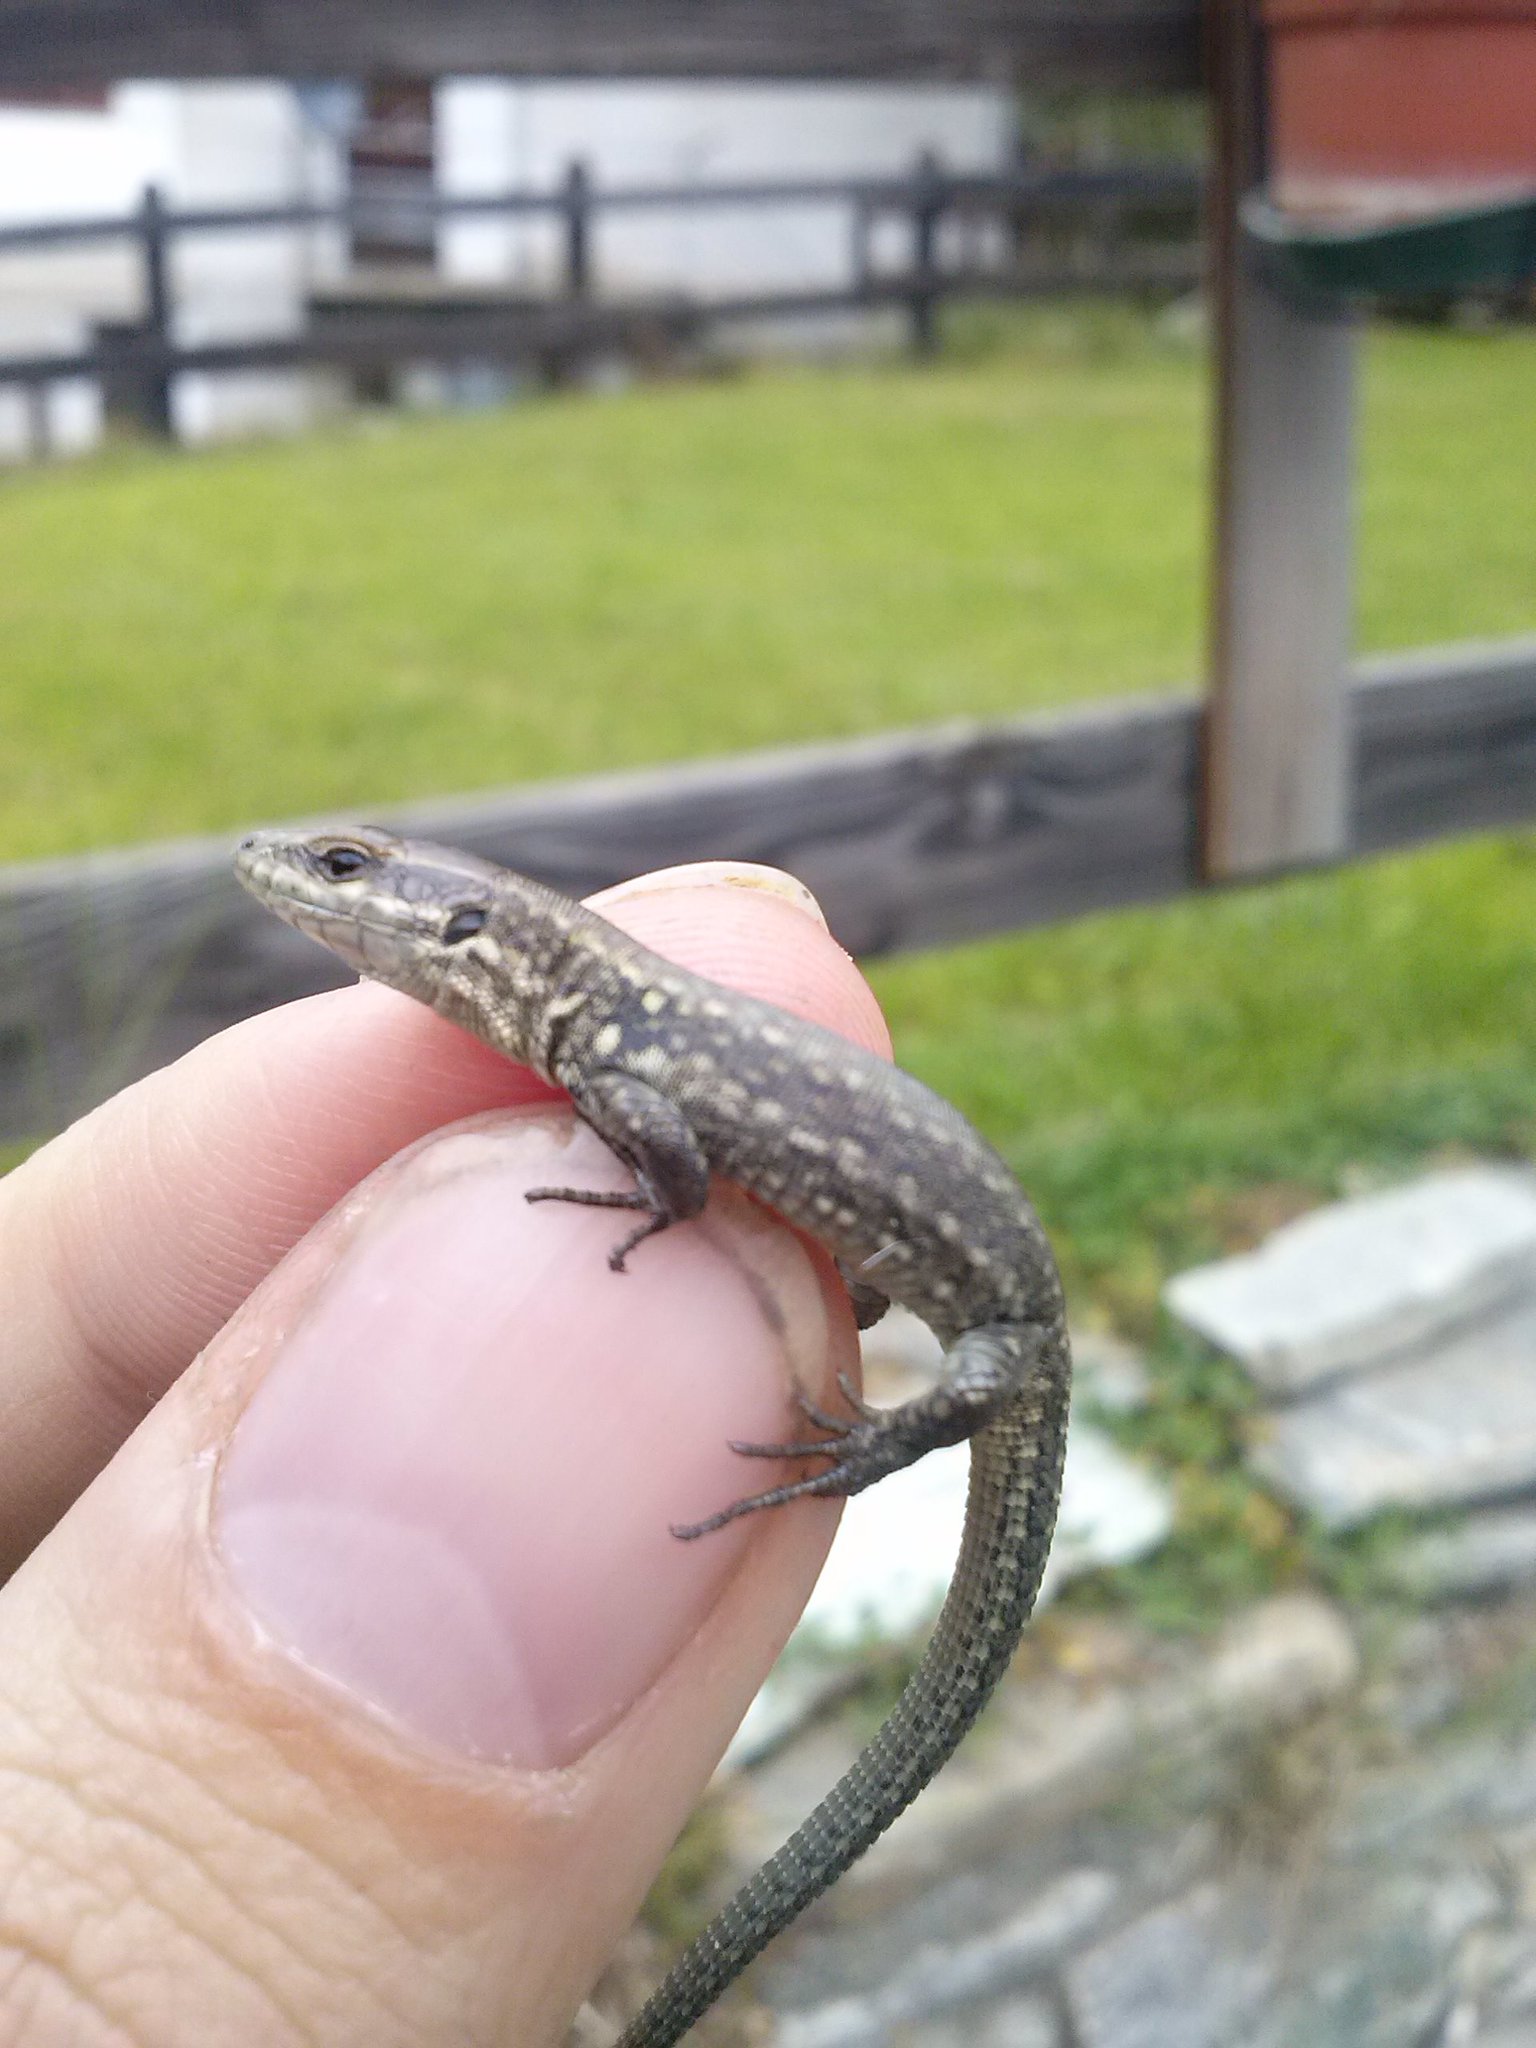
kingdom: Animalia
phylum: Chordata
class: Squamata
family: Lacertidae
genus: Podarcis
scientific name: Podarcis muralis
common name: Common wall lizard
